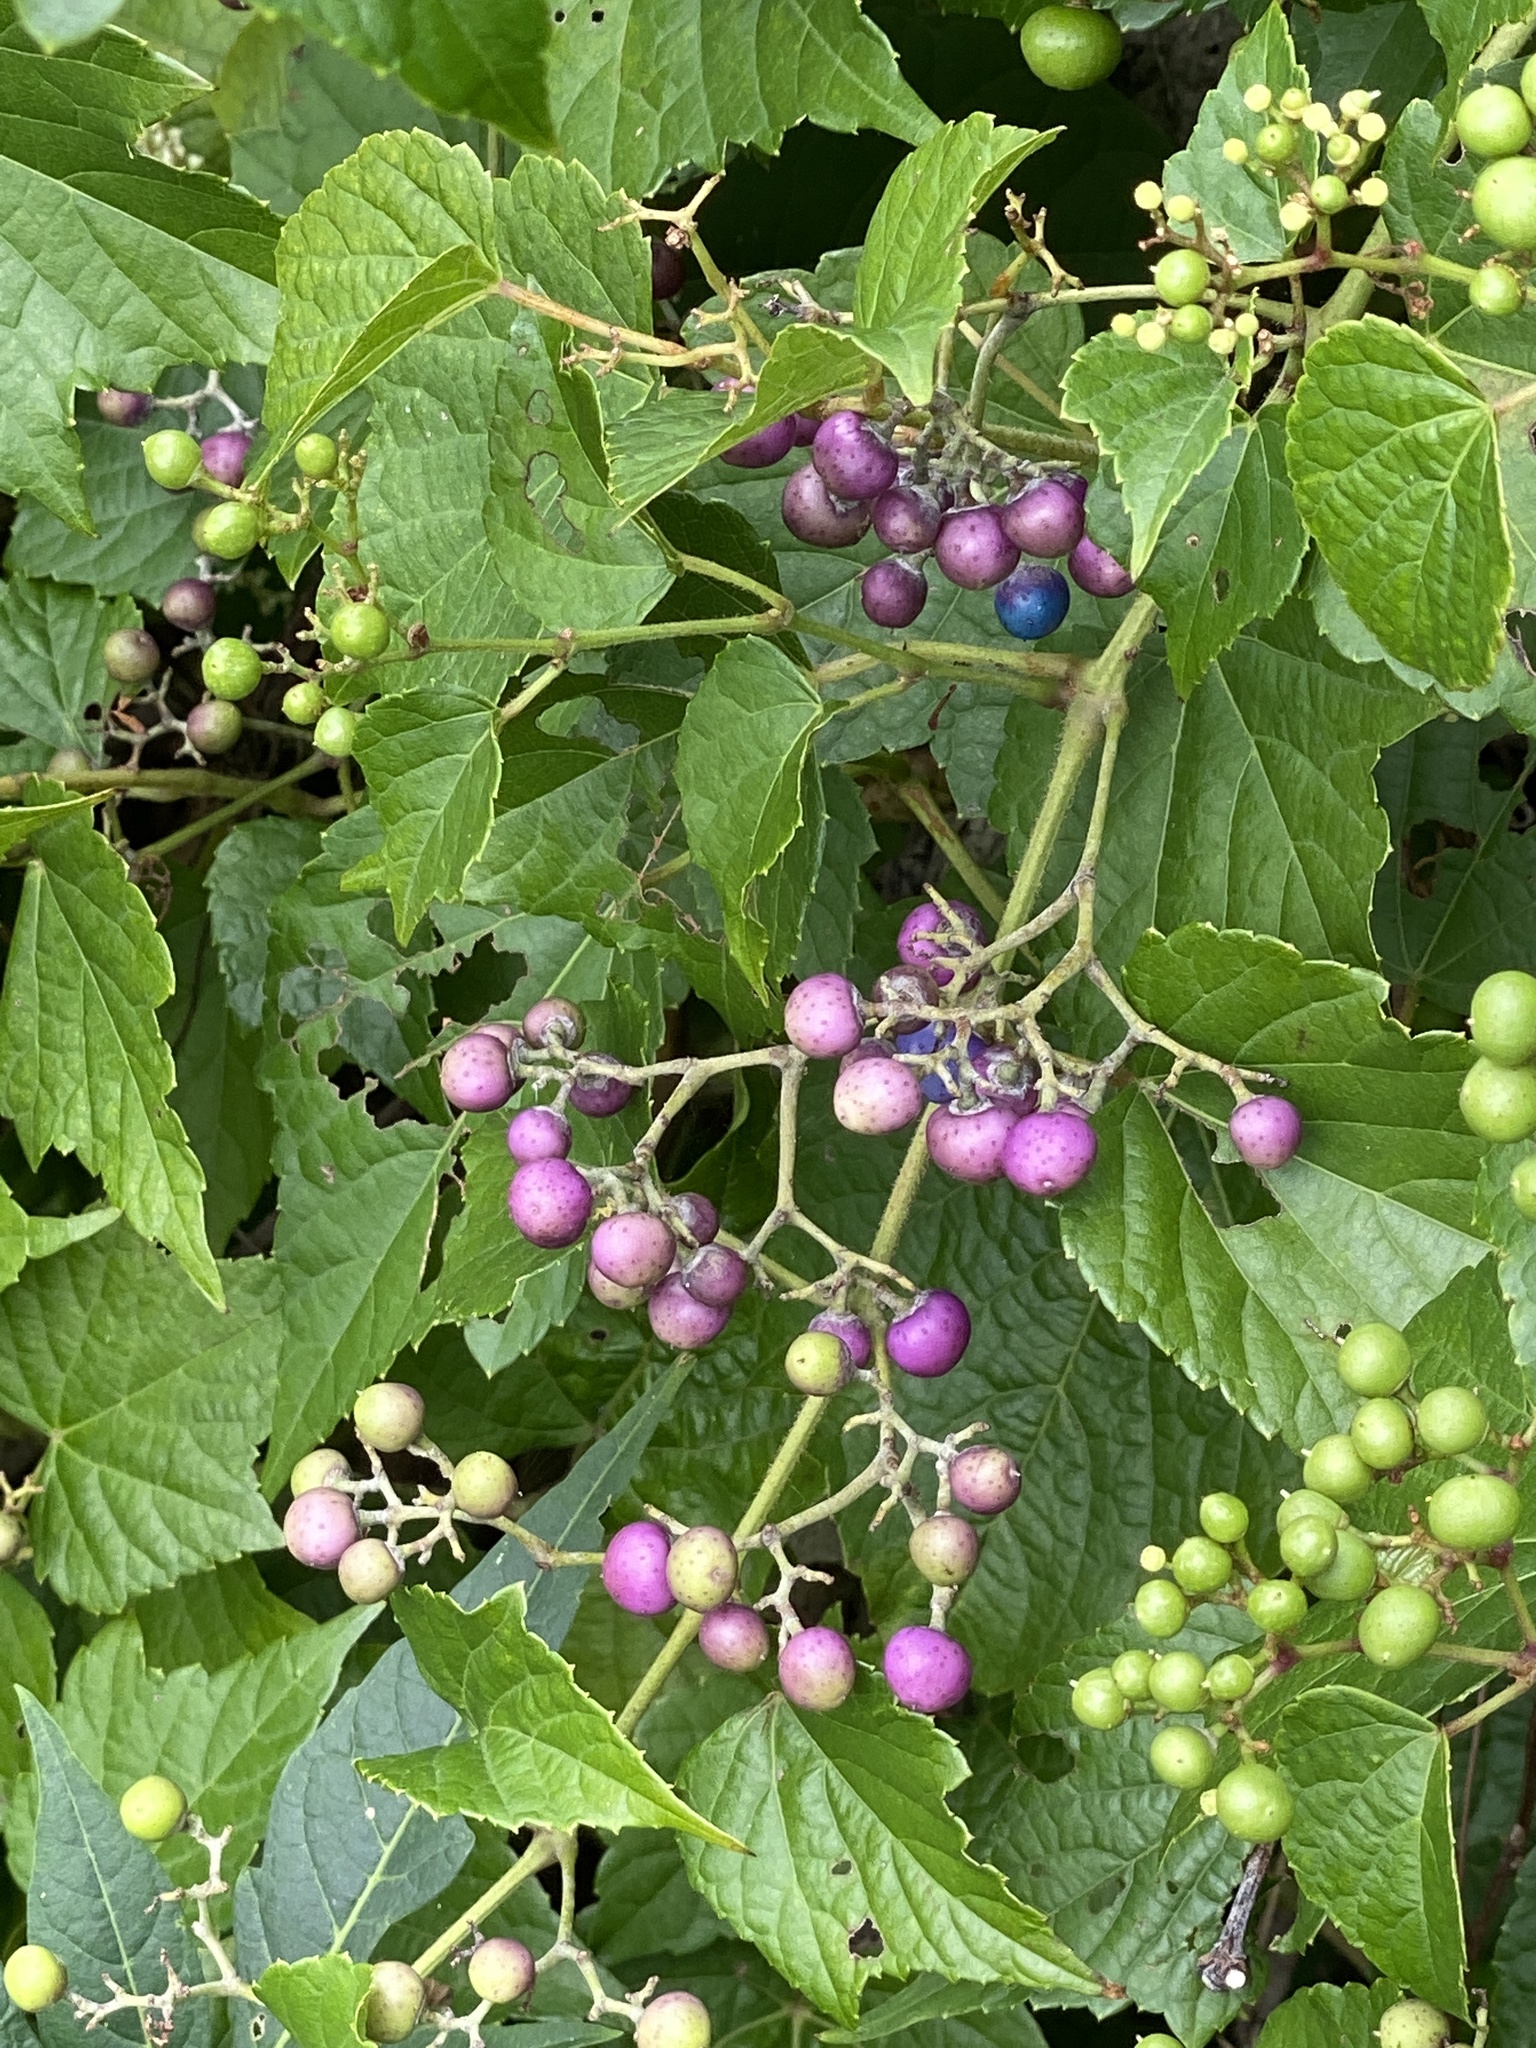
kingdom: Plantae
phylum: Tracheophyta
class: Magnoliopsida
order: Vitales
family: Vitaceae
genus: Ampelopsis
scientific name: Ampelopsis glandulosa
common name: Amur peppervine
